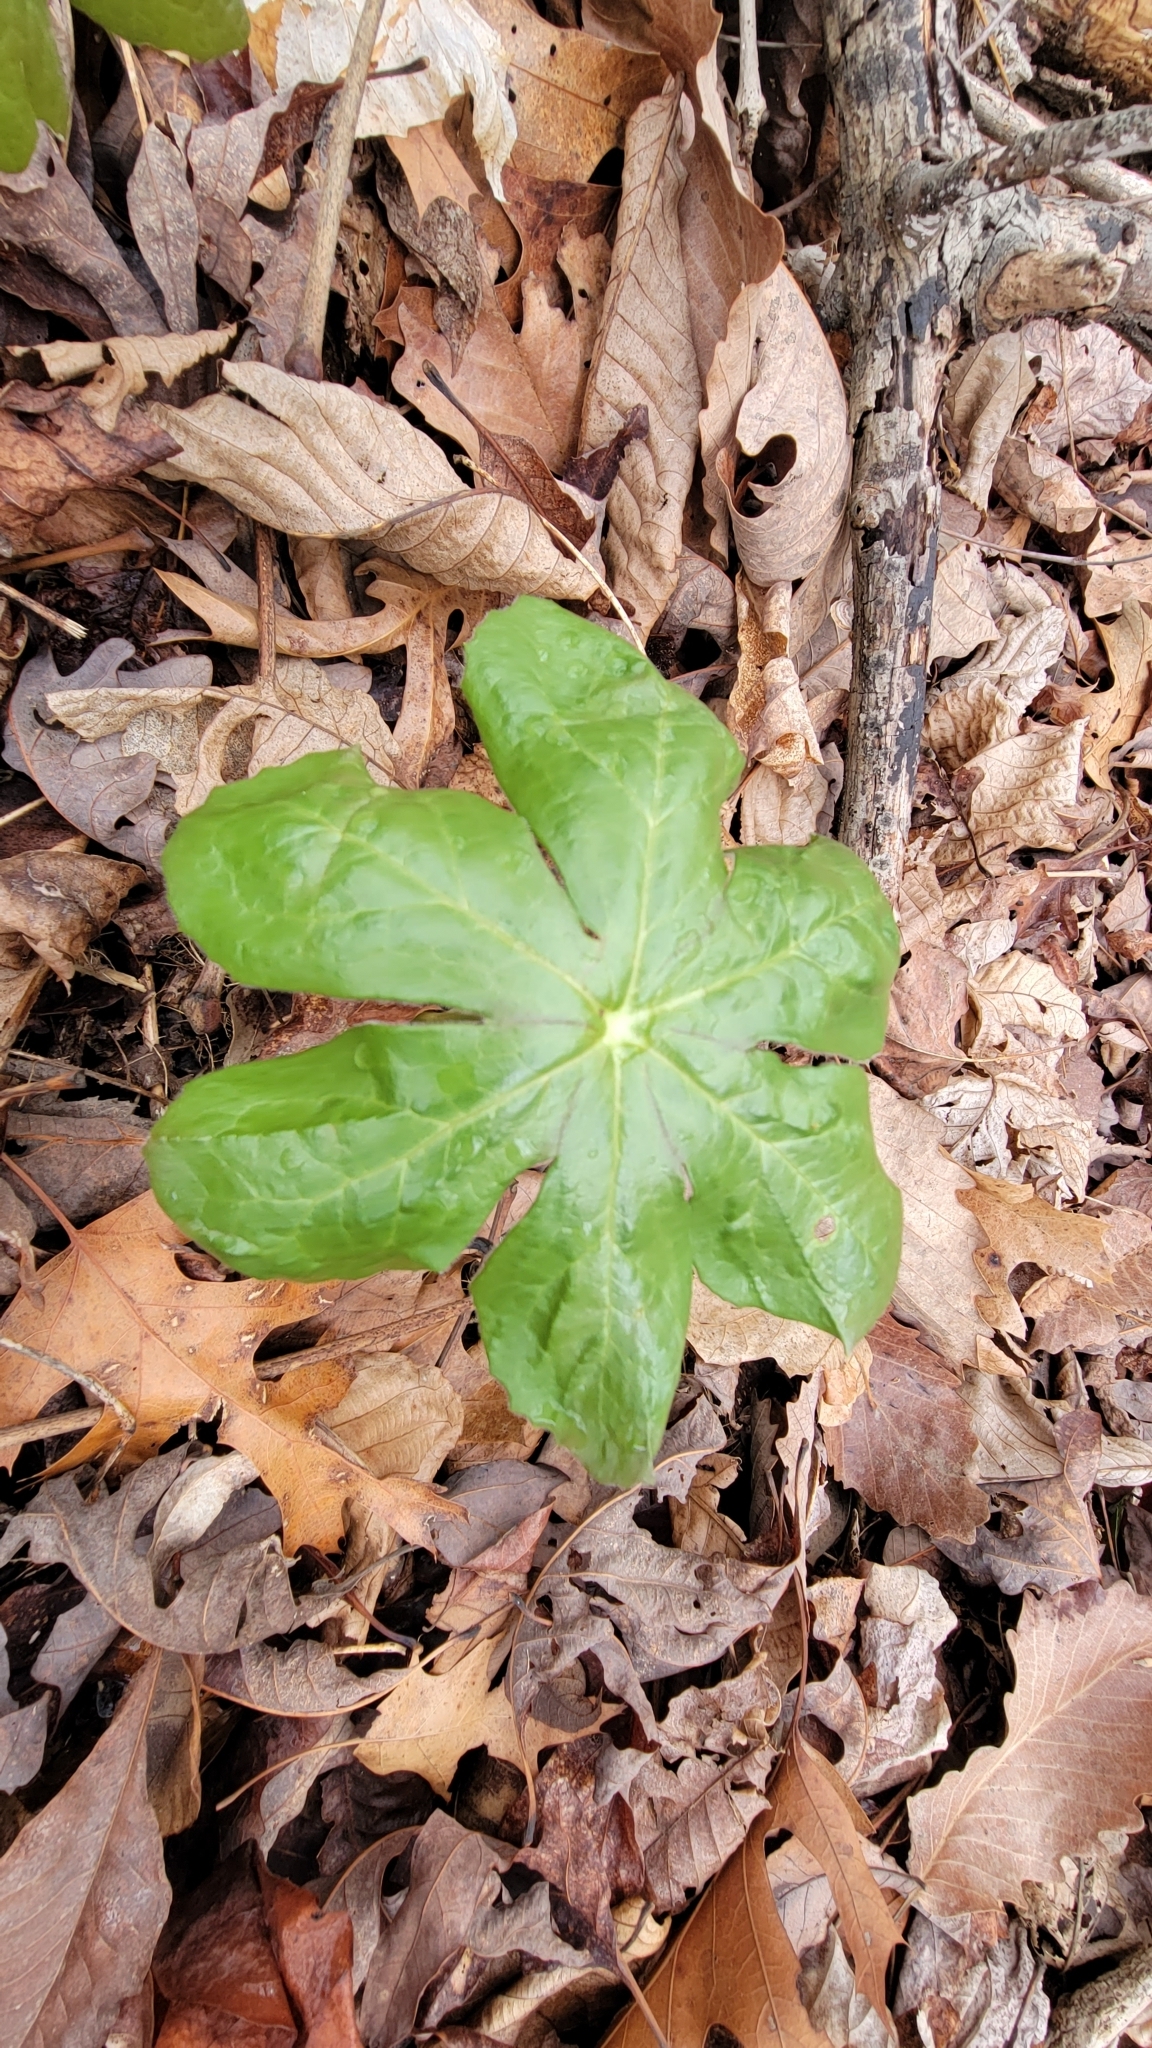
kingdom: Plantae
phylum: Tracheophyta
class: Magnoliopsida
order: Ranunculales
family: Berberidaceae
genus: Podophyllum
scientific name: Podophyllum peltatum
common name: Wild mandrake
